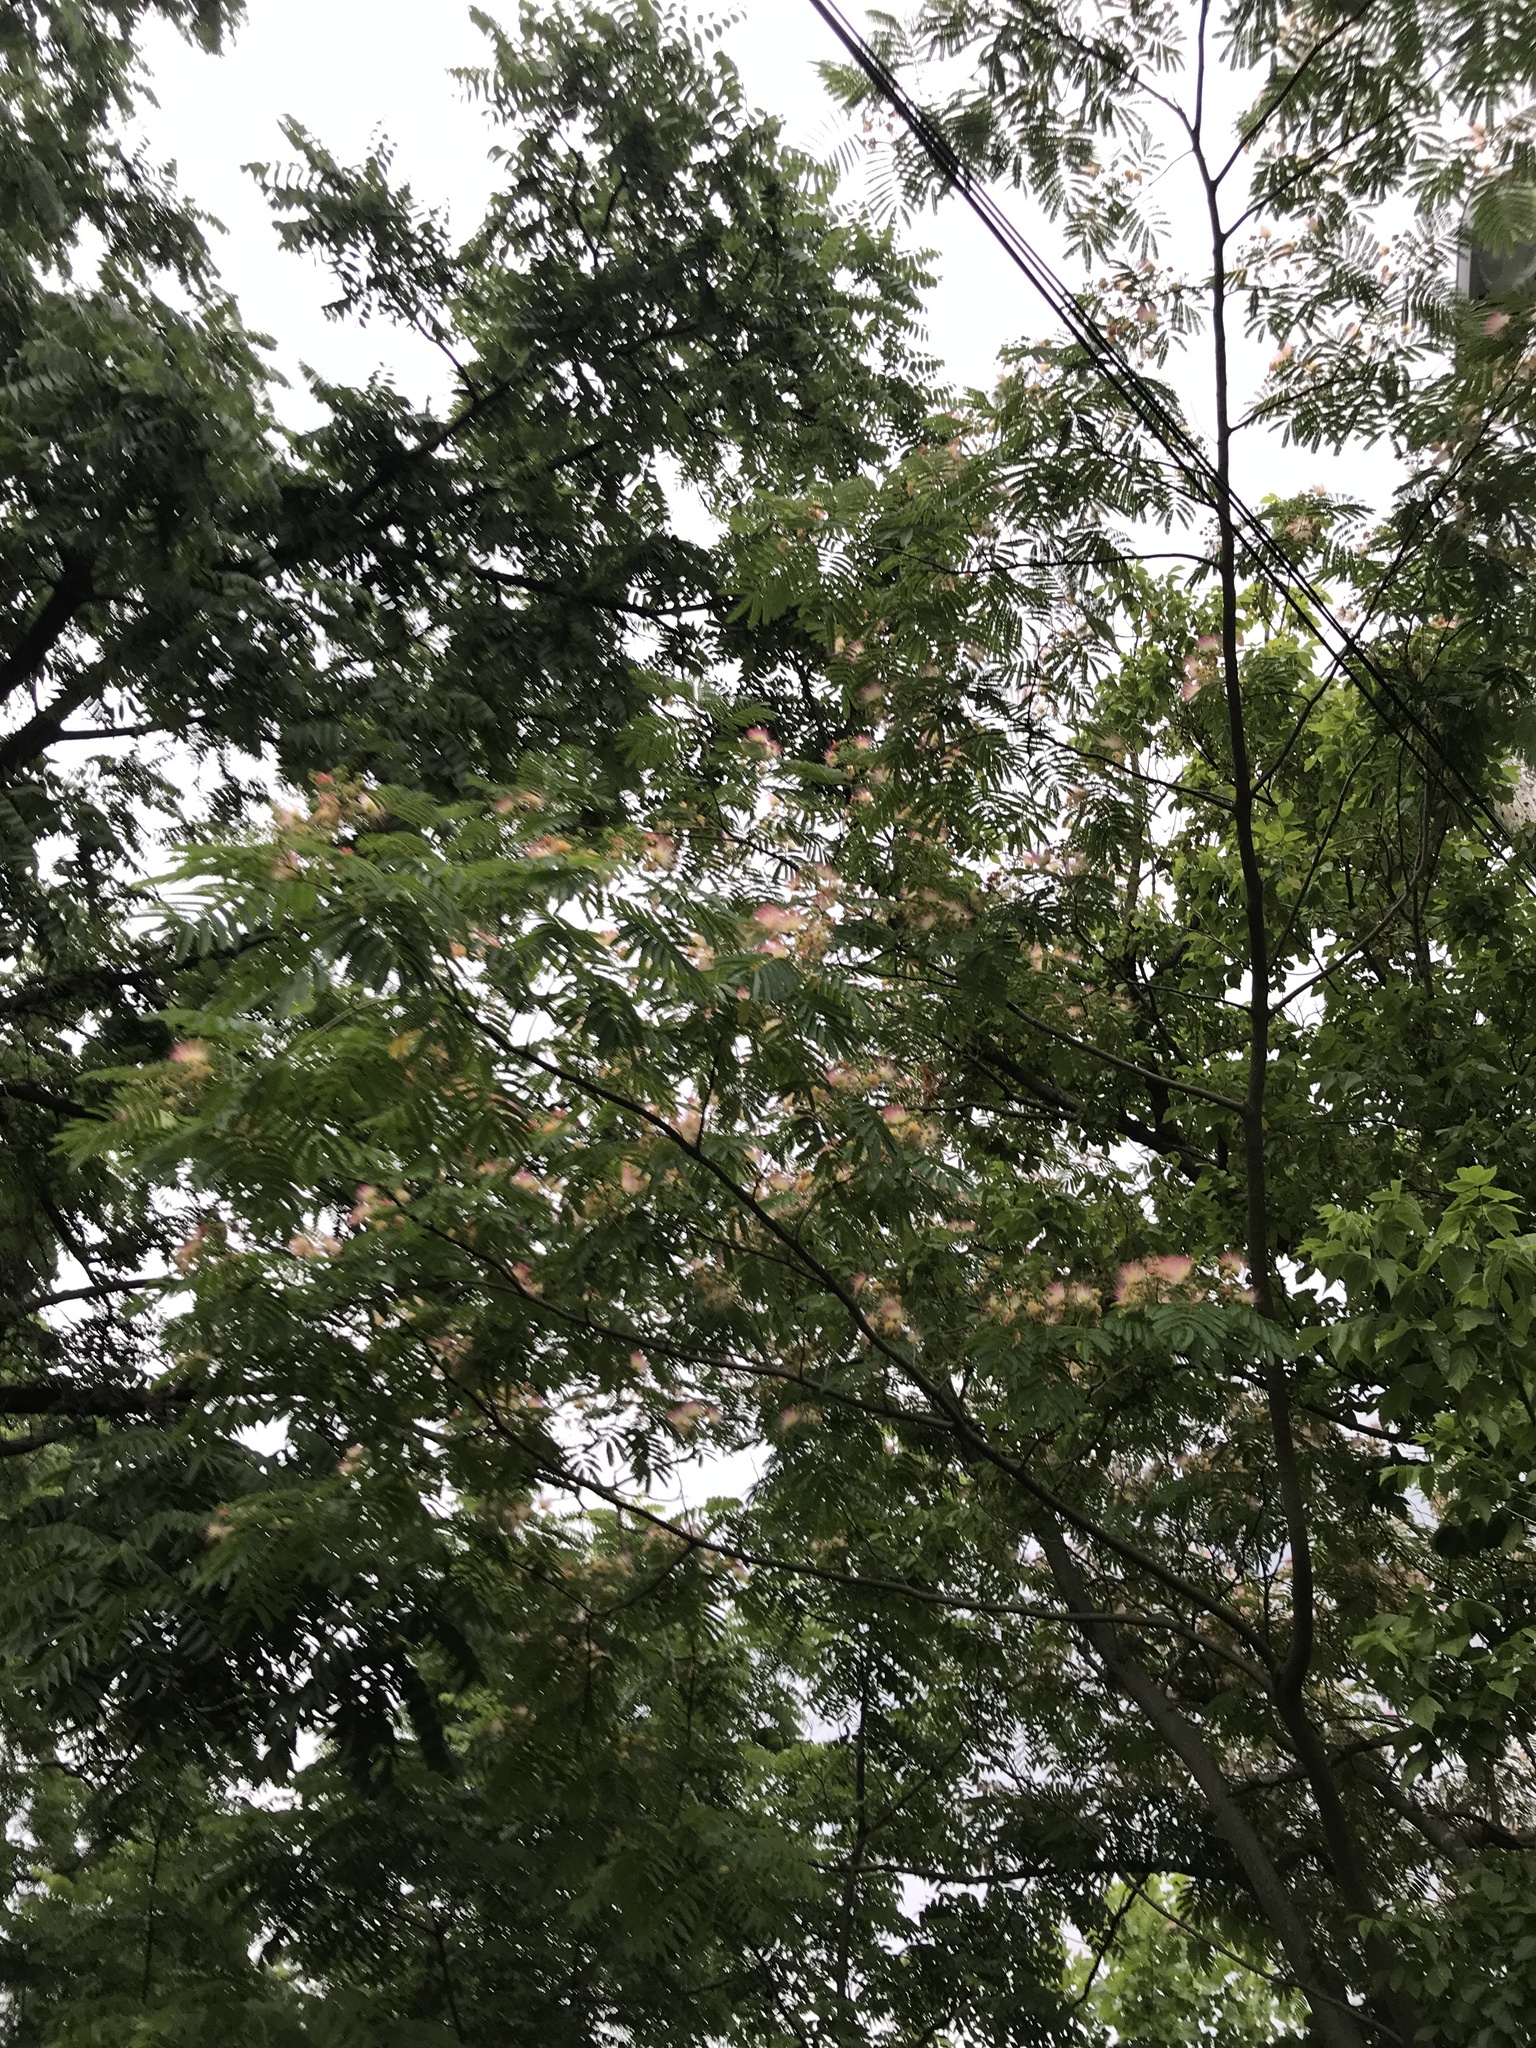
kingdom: Plantae
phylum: Tracheophyta
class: Magnoliopsida
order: Fabales
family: Fabaceae
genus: Albizia
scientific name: Albizia julibrissin
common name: Silktree
